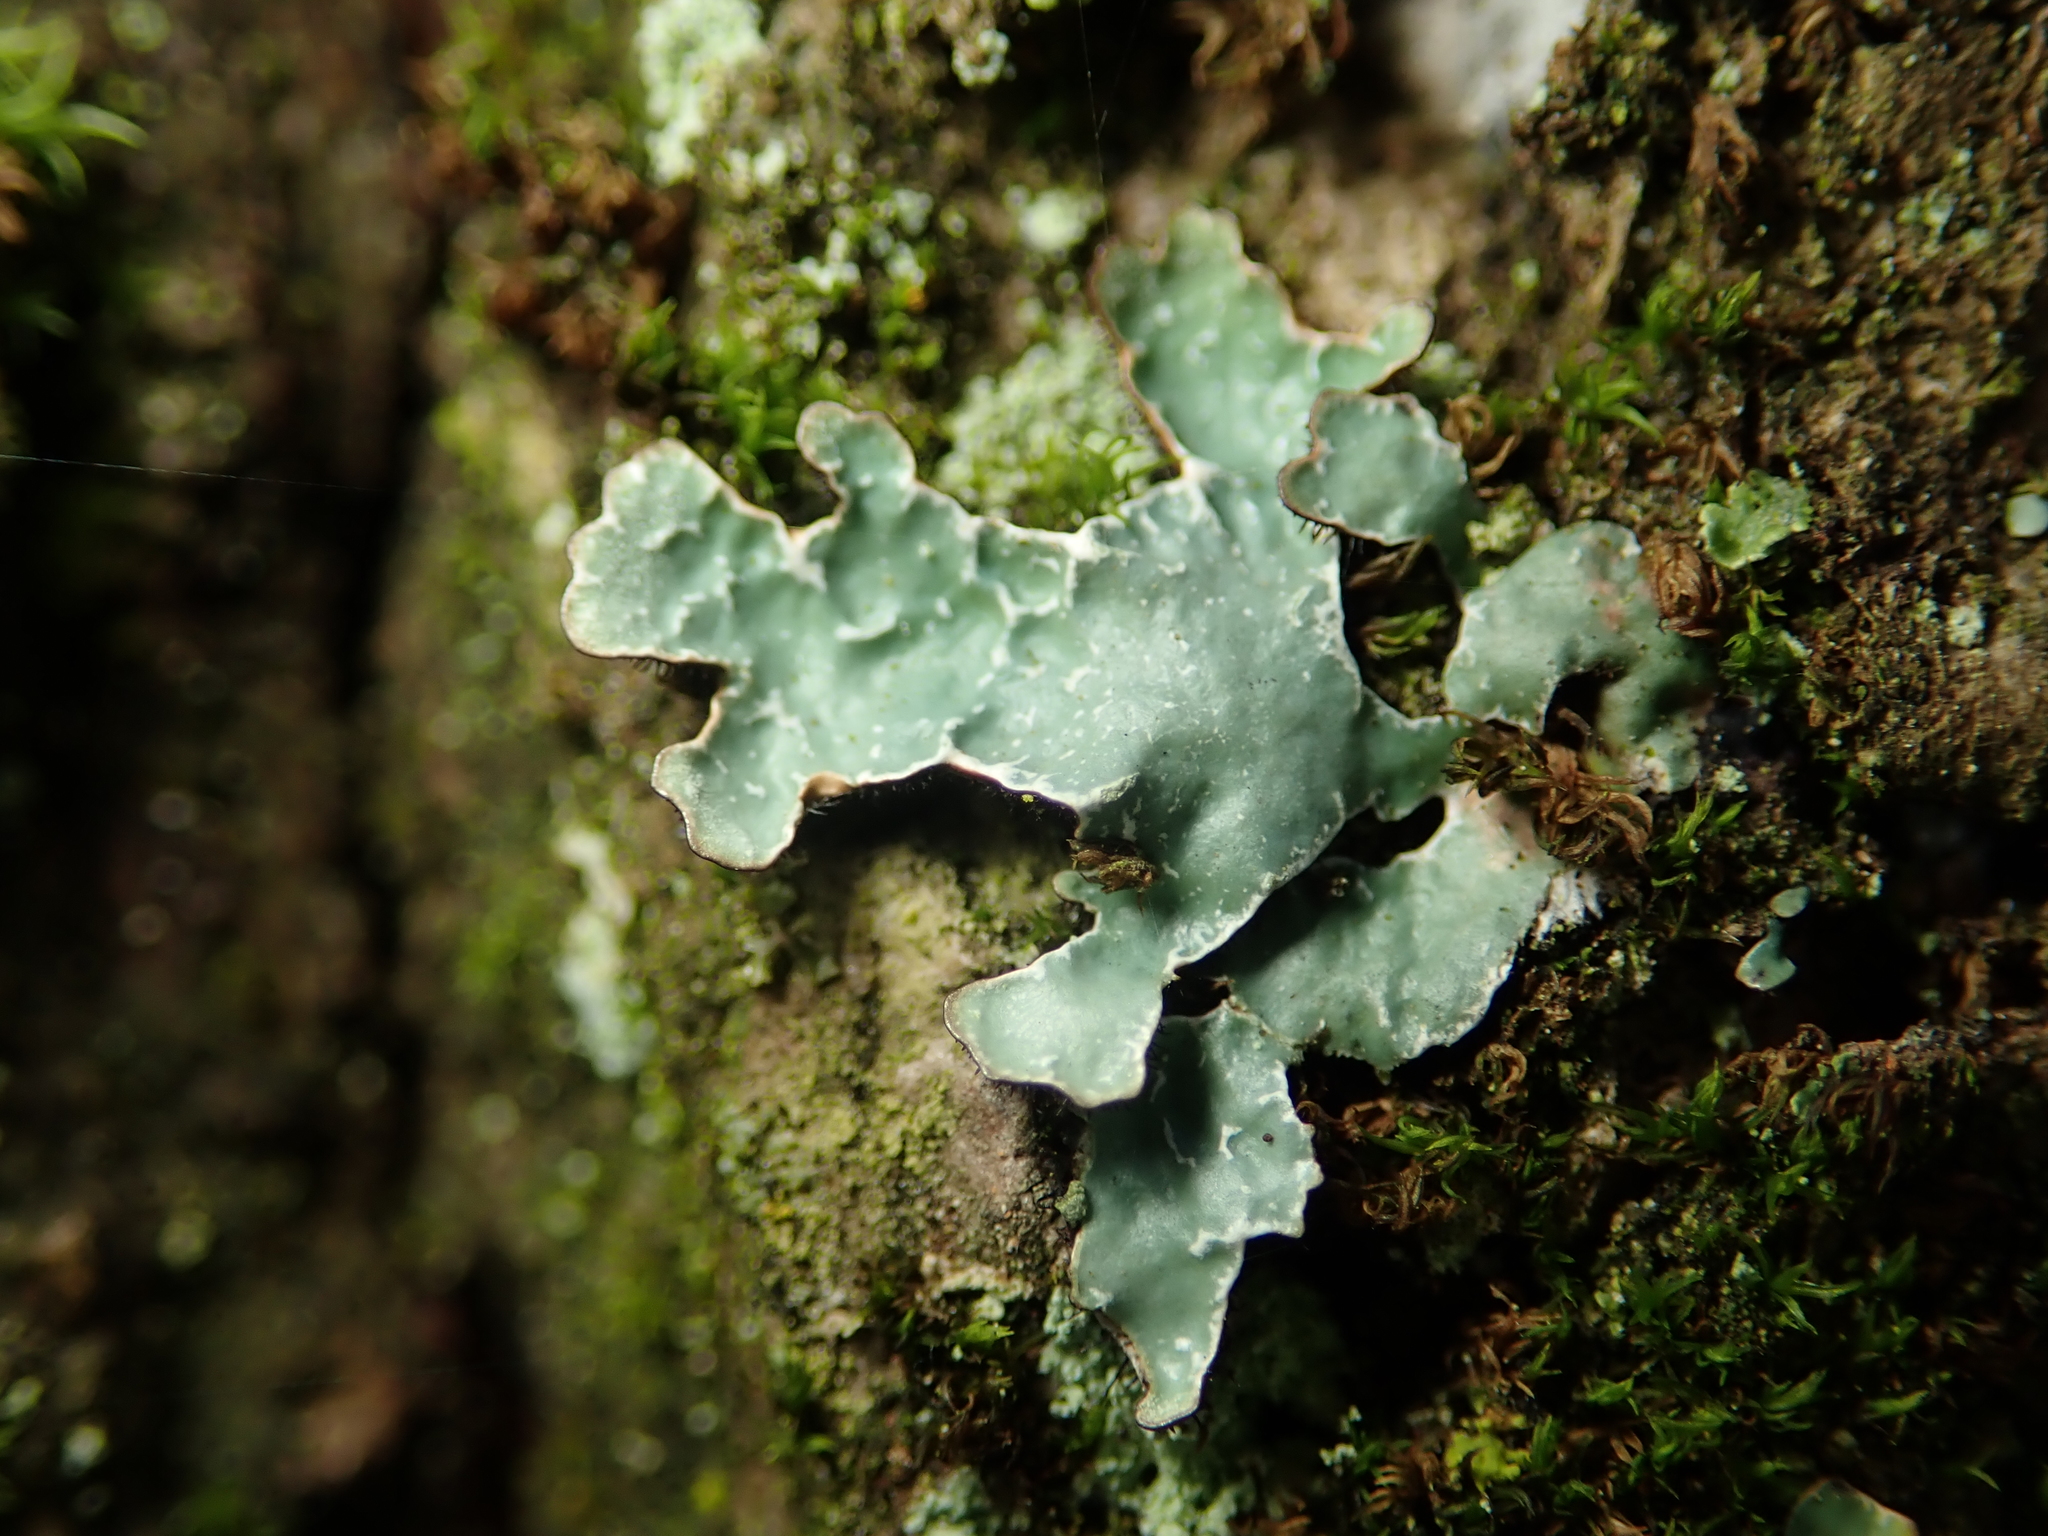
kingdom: Fungi
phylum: Ascomycota
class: Lecanoromycetes
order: Lecanorales
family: Parmeliaceae
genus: Parmelia
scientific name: Parmelia sulcata
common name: Netted shield lichen
